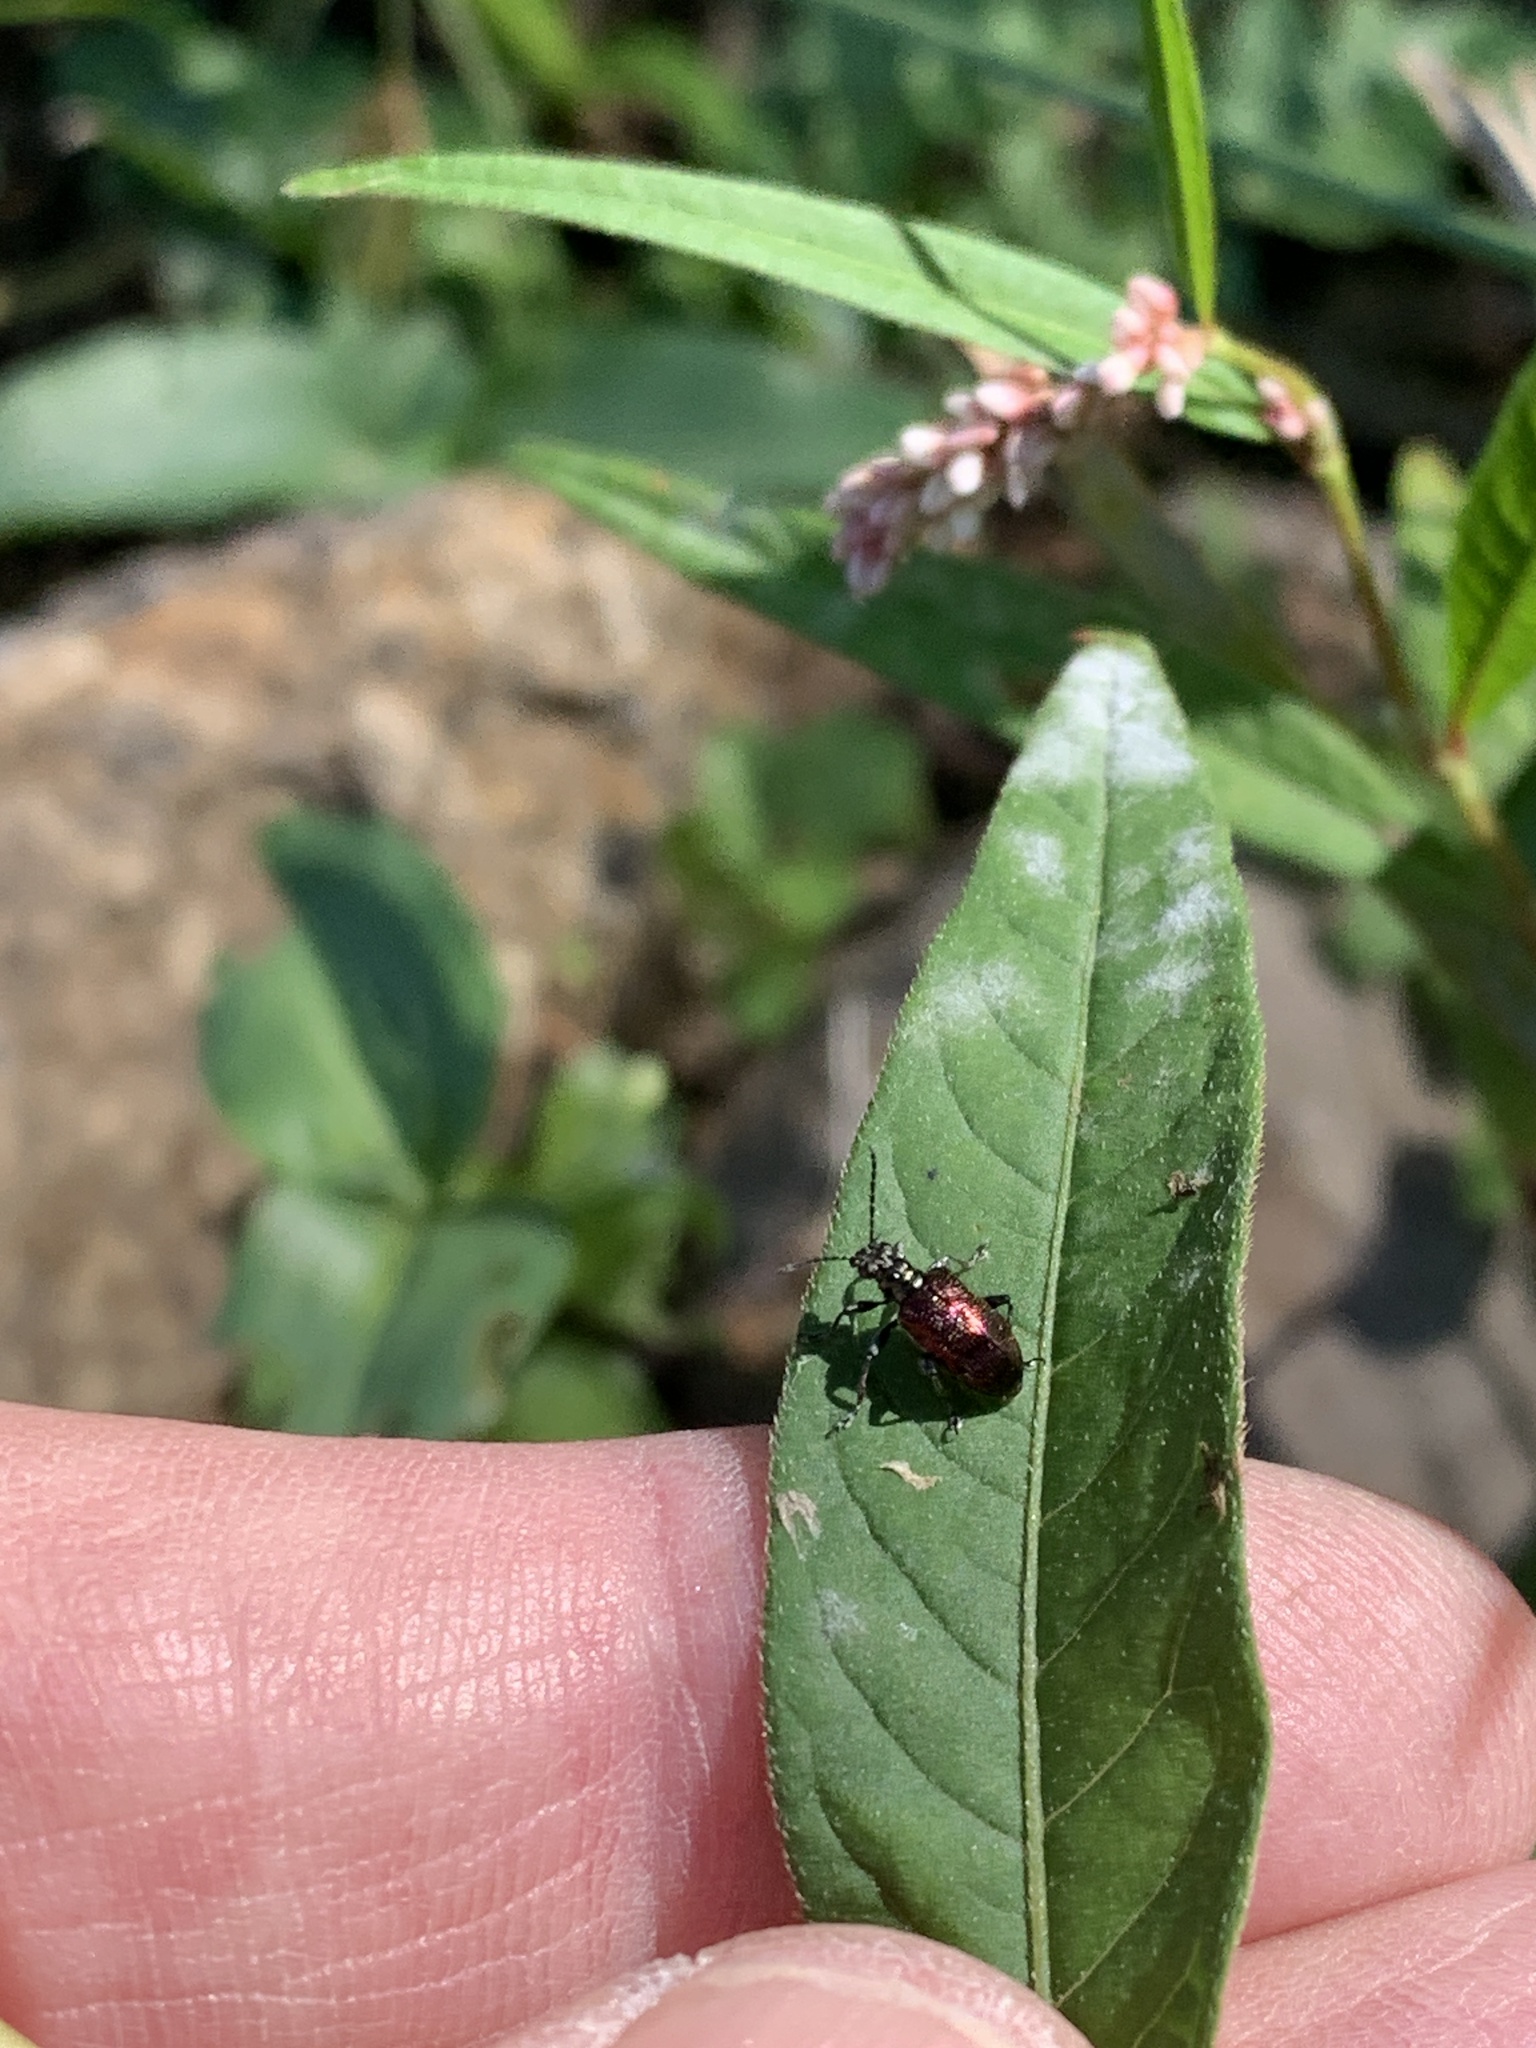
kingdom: Animalia
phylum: Arthropoda
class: Insecta
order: Coleoptera
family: Chrysomelidae
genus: Lema
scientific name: Lema
